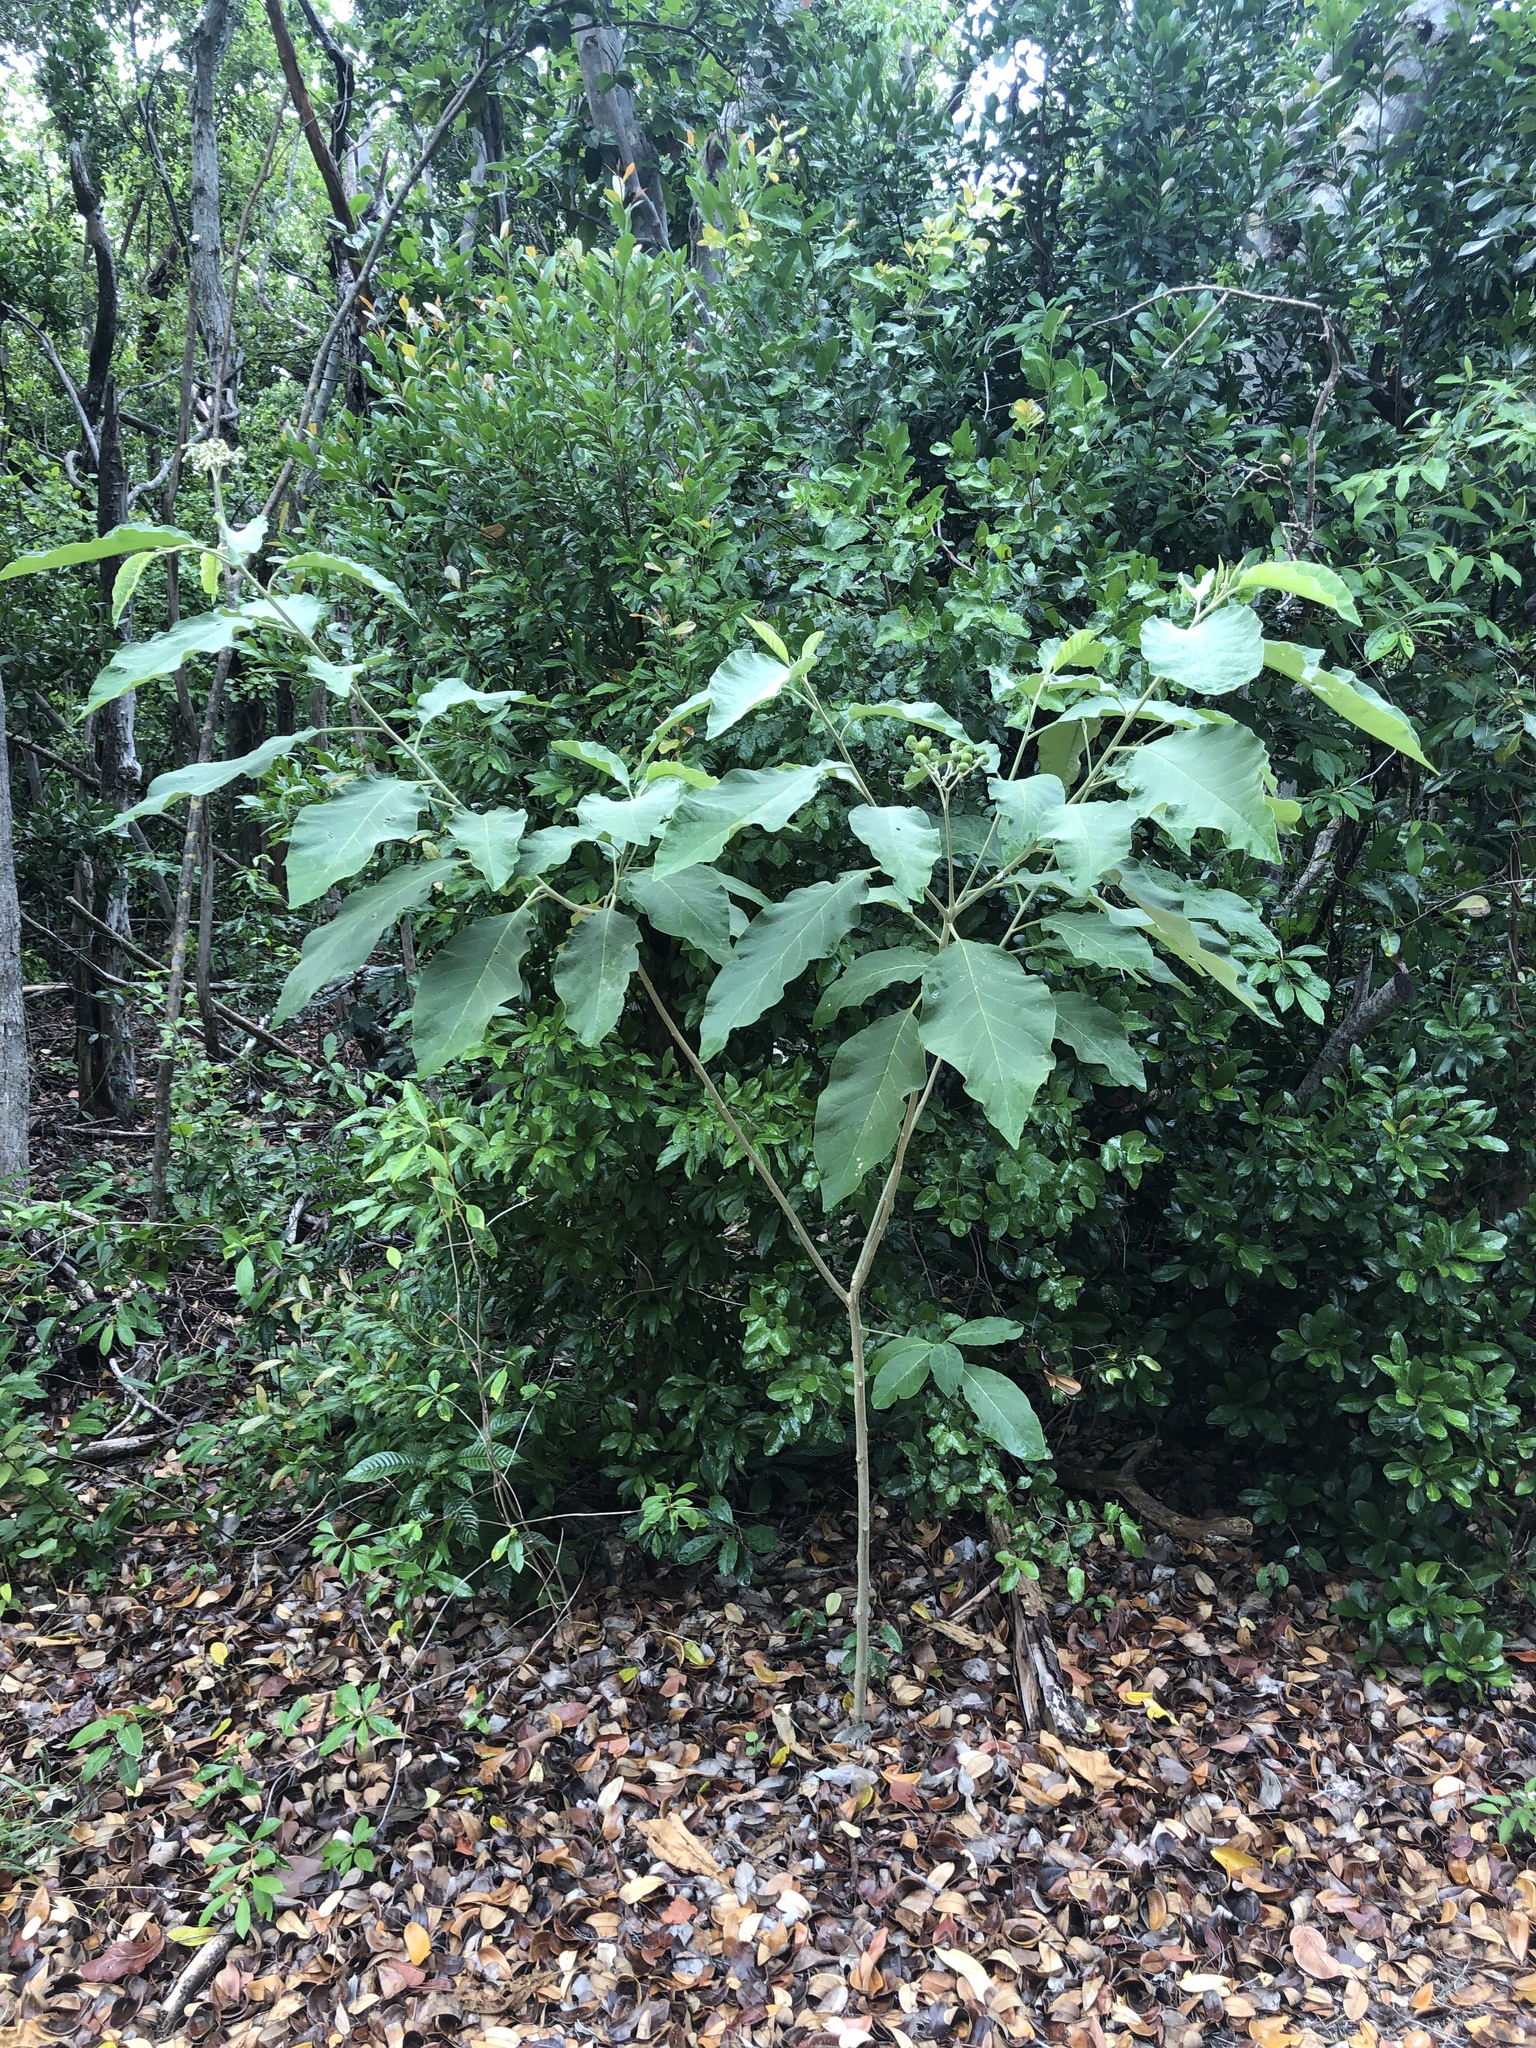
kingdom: Plantae
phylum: Tracheophyta
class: Magnoliopsida
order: Solanales
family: Solanaceae
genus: Solanum
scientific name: Solanum erianthum
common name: Tobacco-tree
